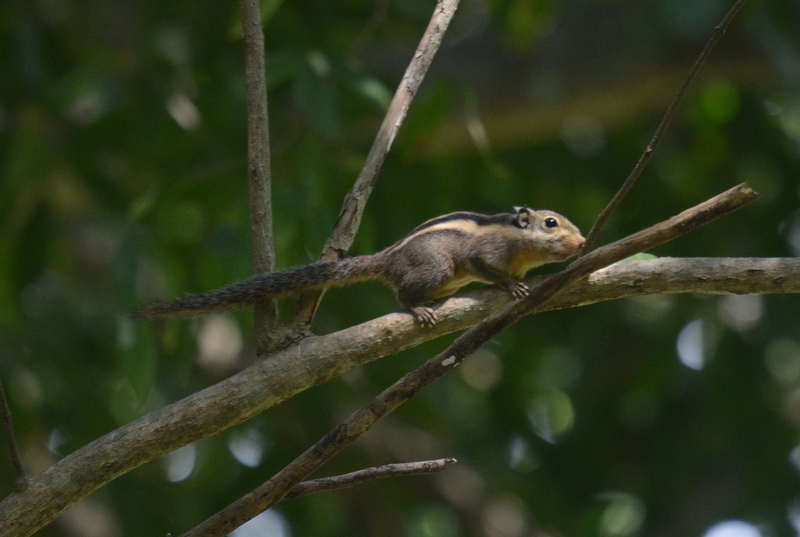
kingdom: Animalia
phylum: Chordata
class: Mammalia
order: Rodentia
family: Sciuridae
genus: Tamiops
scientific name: Tamiops mcclellandii
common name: Himalayan striped squirrel
